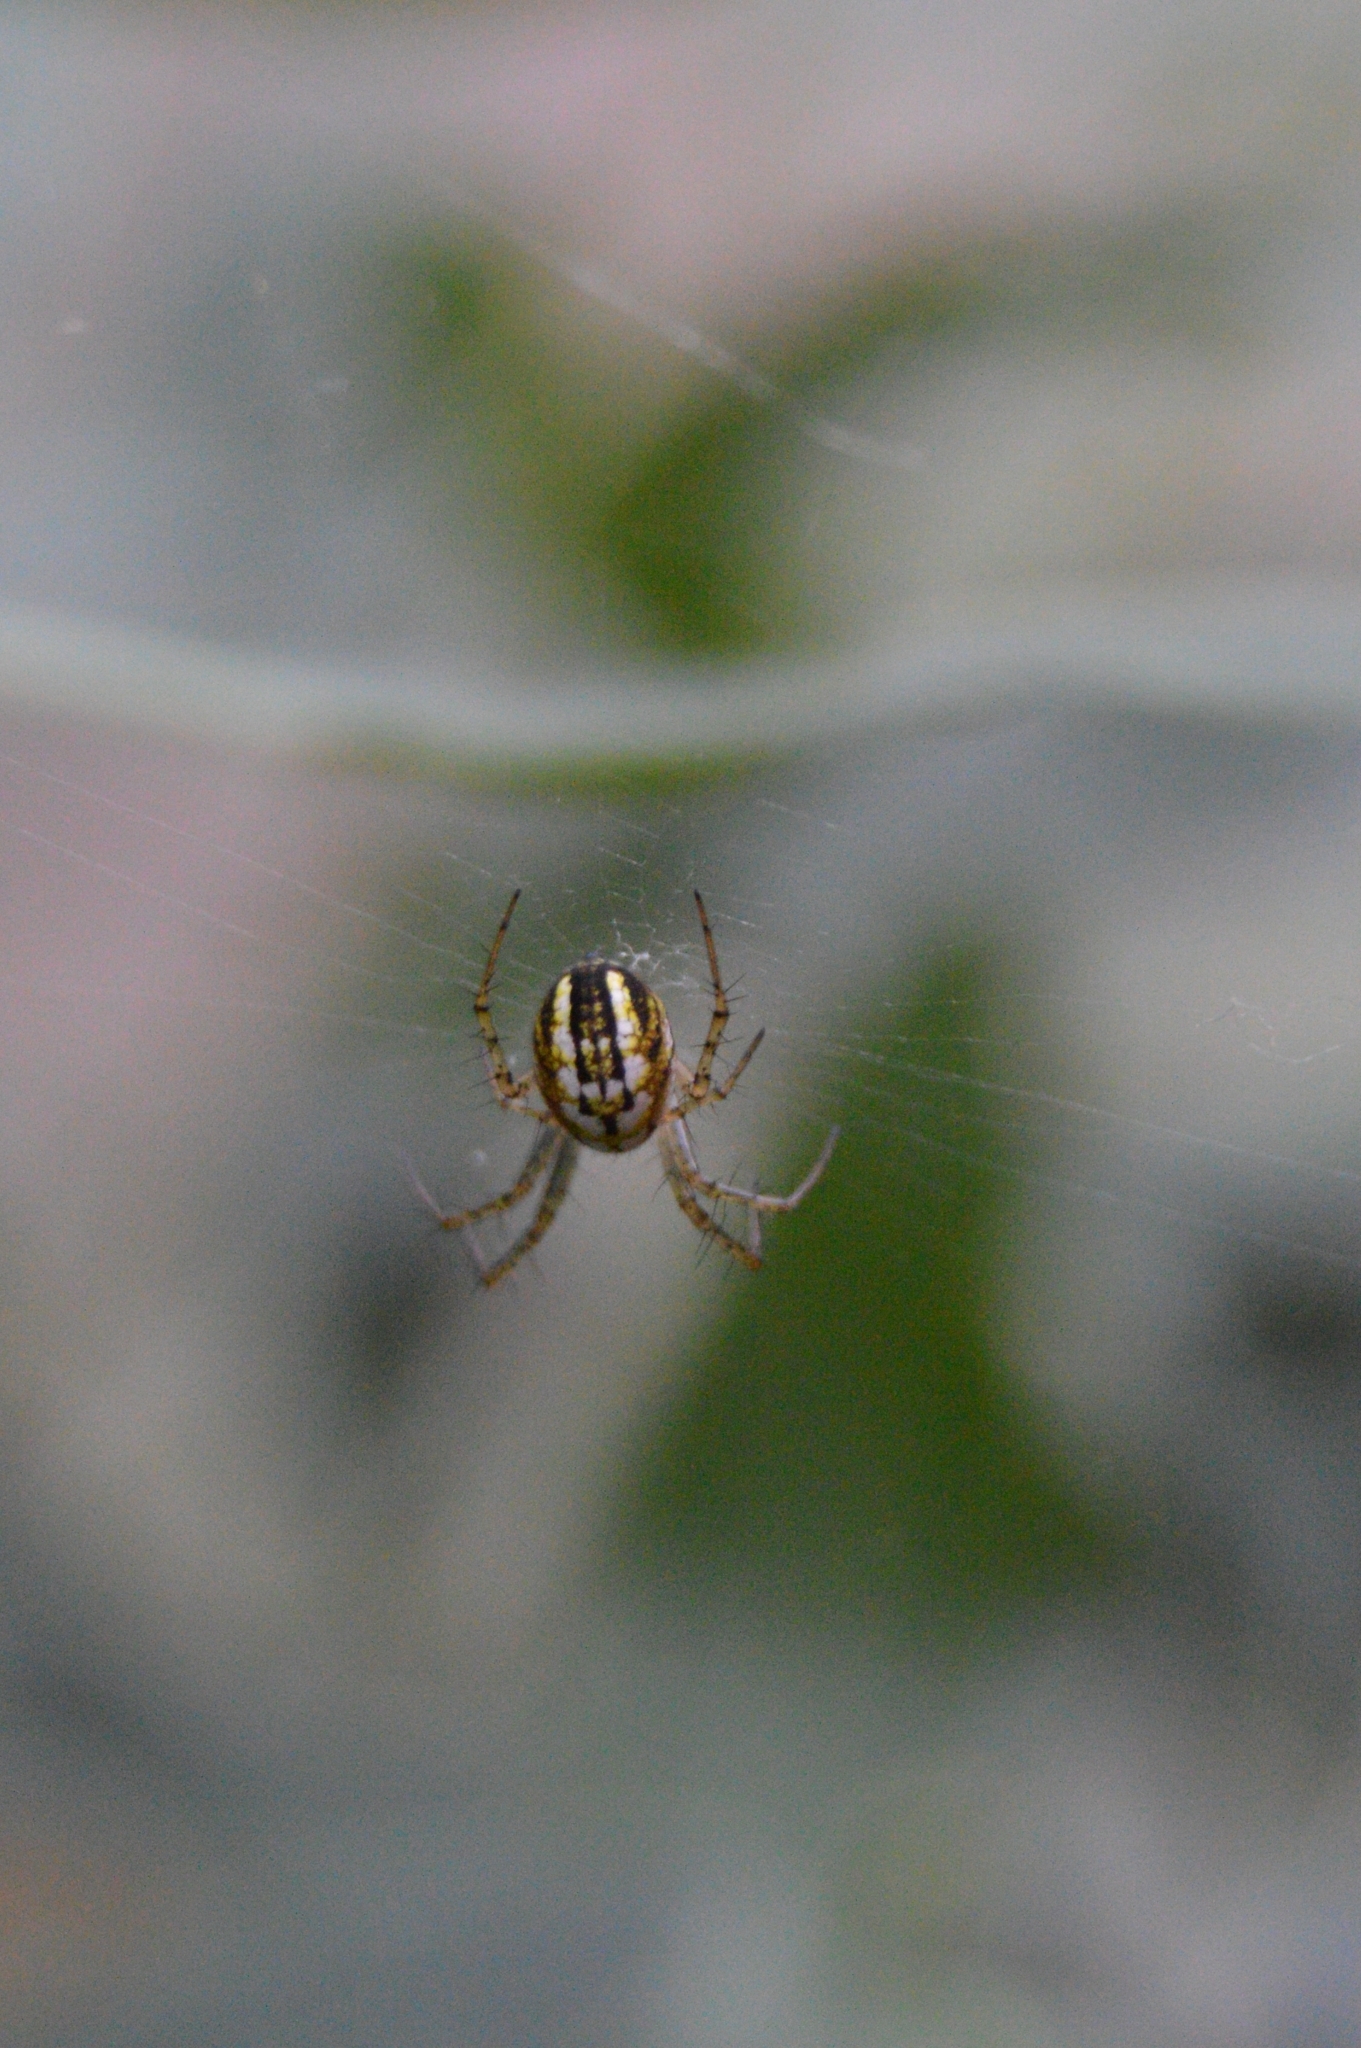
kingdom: Animalia
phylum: Arthropoda
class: Arachnida
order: Araneae
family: Araneidae
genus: Mangora
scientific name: Mangora acalypha
